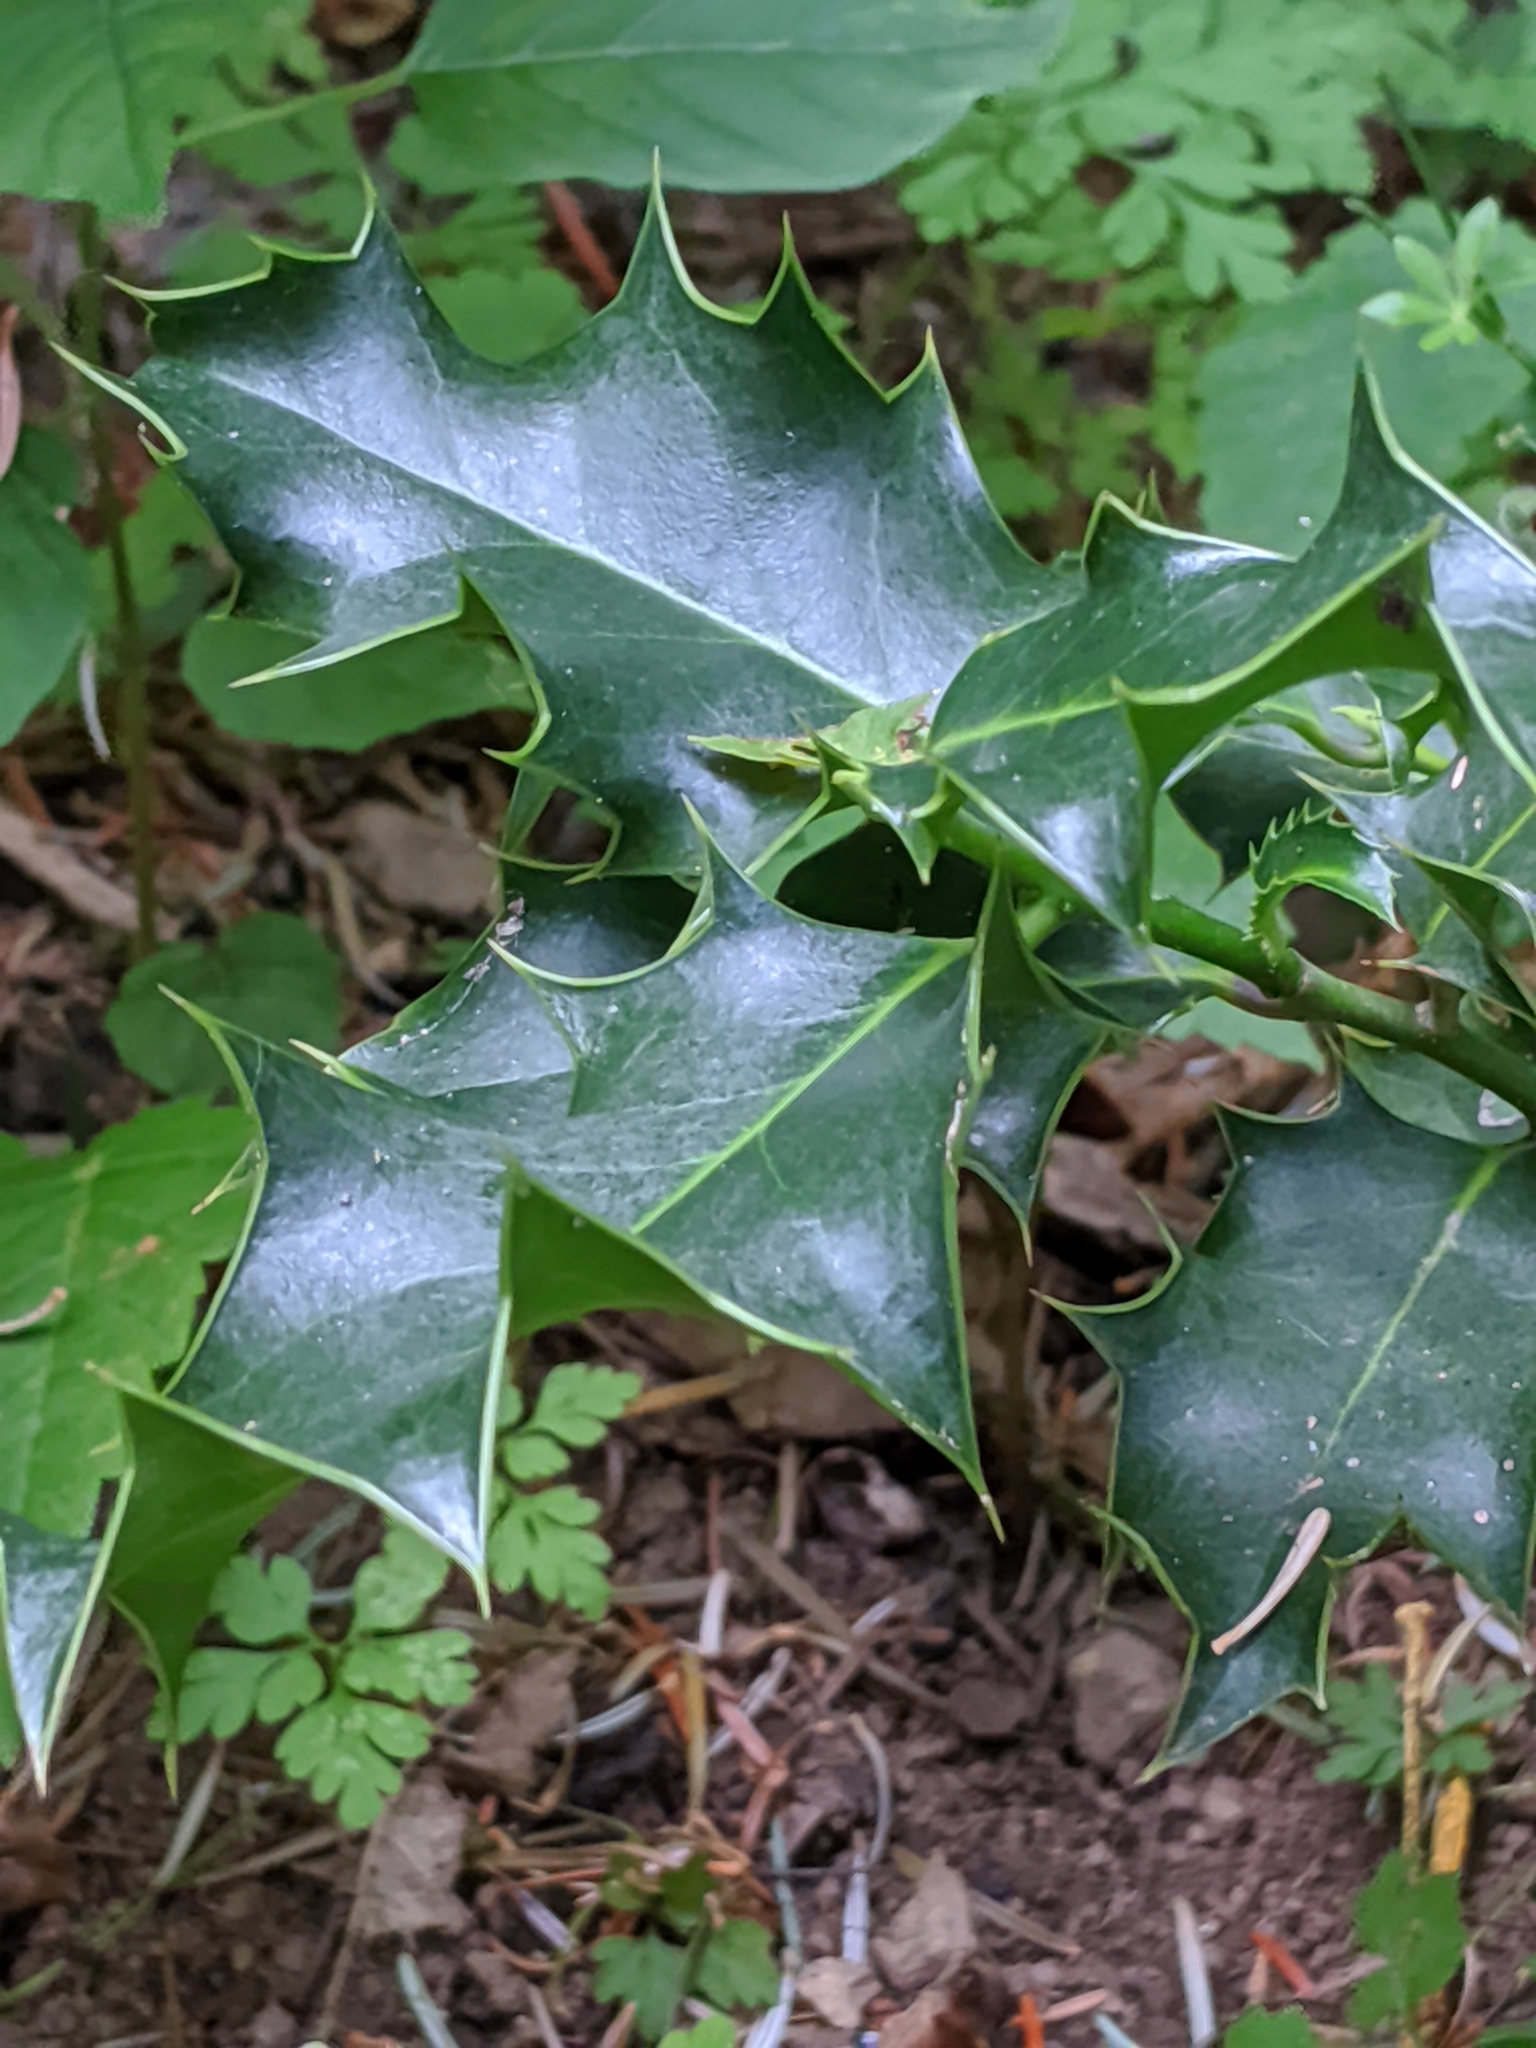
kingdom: Plantae
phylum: Tracheophyta
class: Magnoliopsida
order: Aquifoliales
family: Aquifoliaceae
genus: Ilex
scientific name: Ilex aquifolium
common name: English holly
